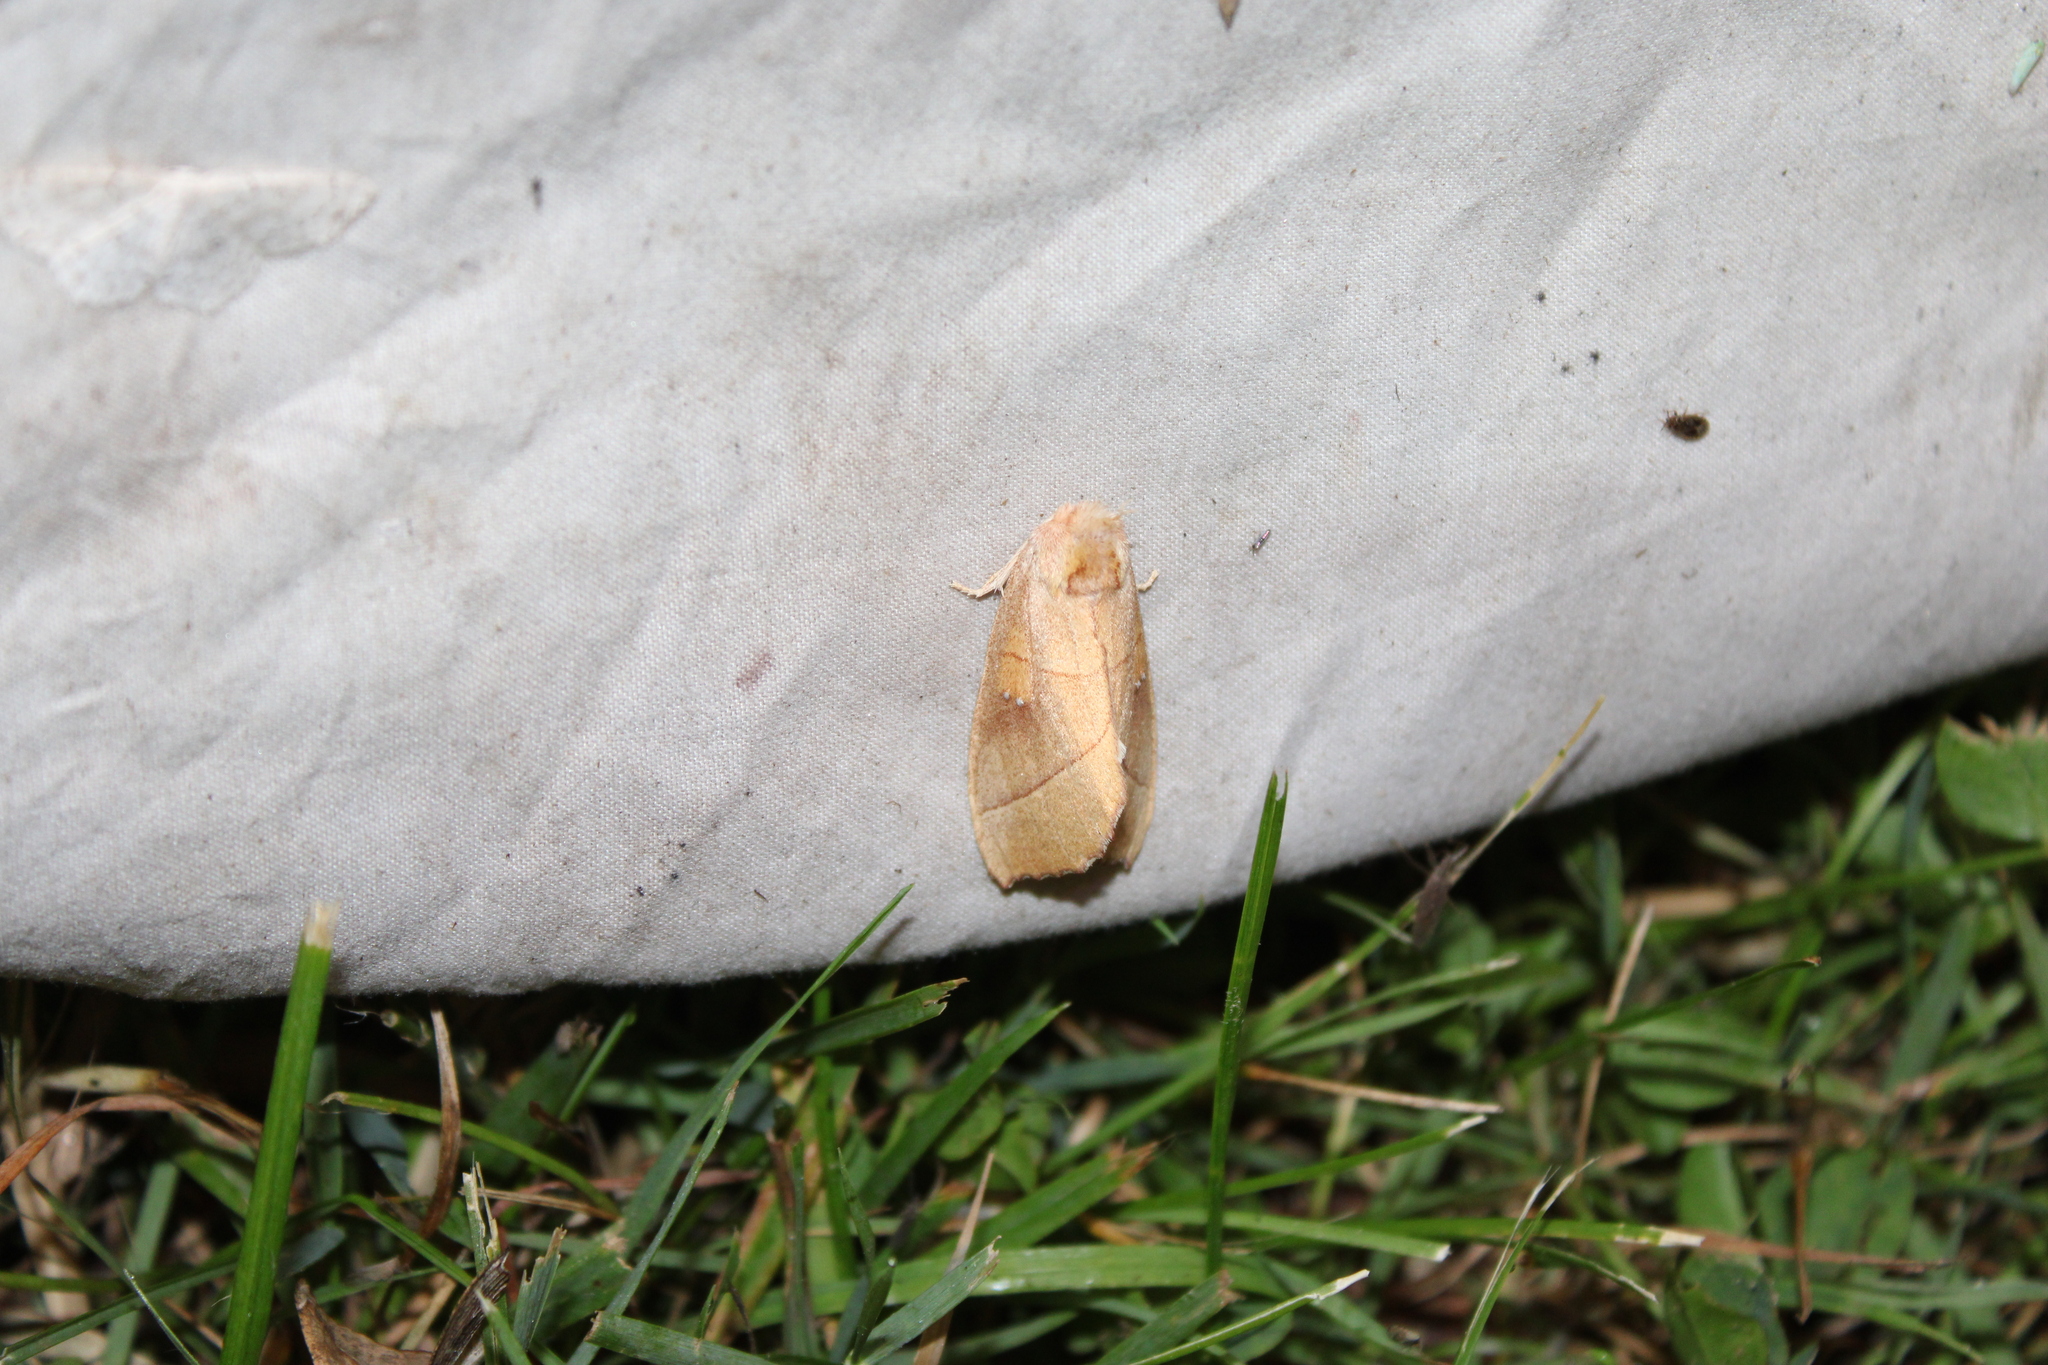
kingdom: Animalia
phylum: Arthropoda
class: Insecta
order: Lepidoptera
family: Notodontidae
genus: Nadata
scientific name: Nadata gibbosa
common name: White-dotted prominent
